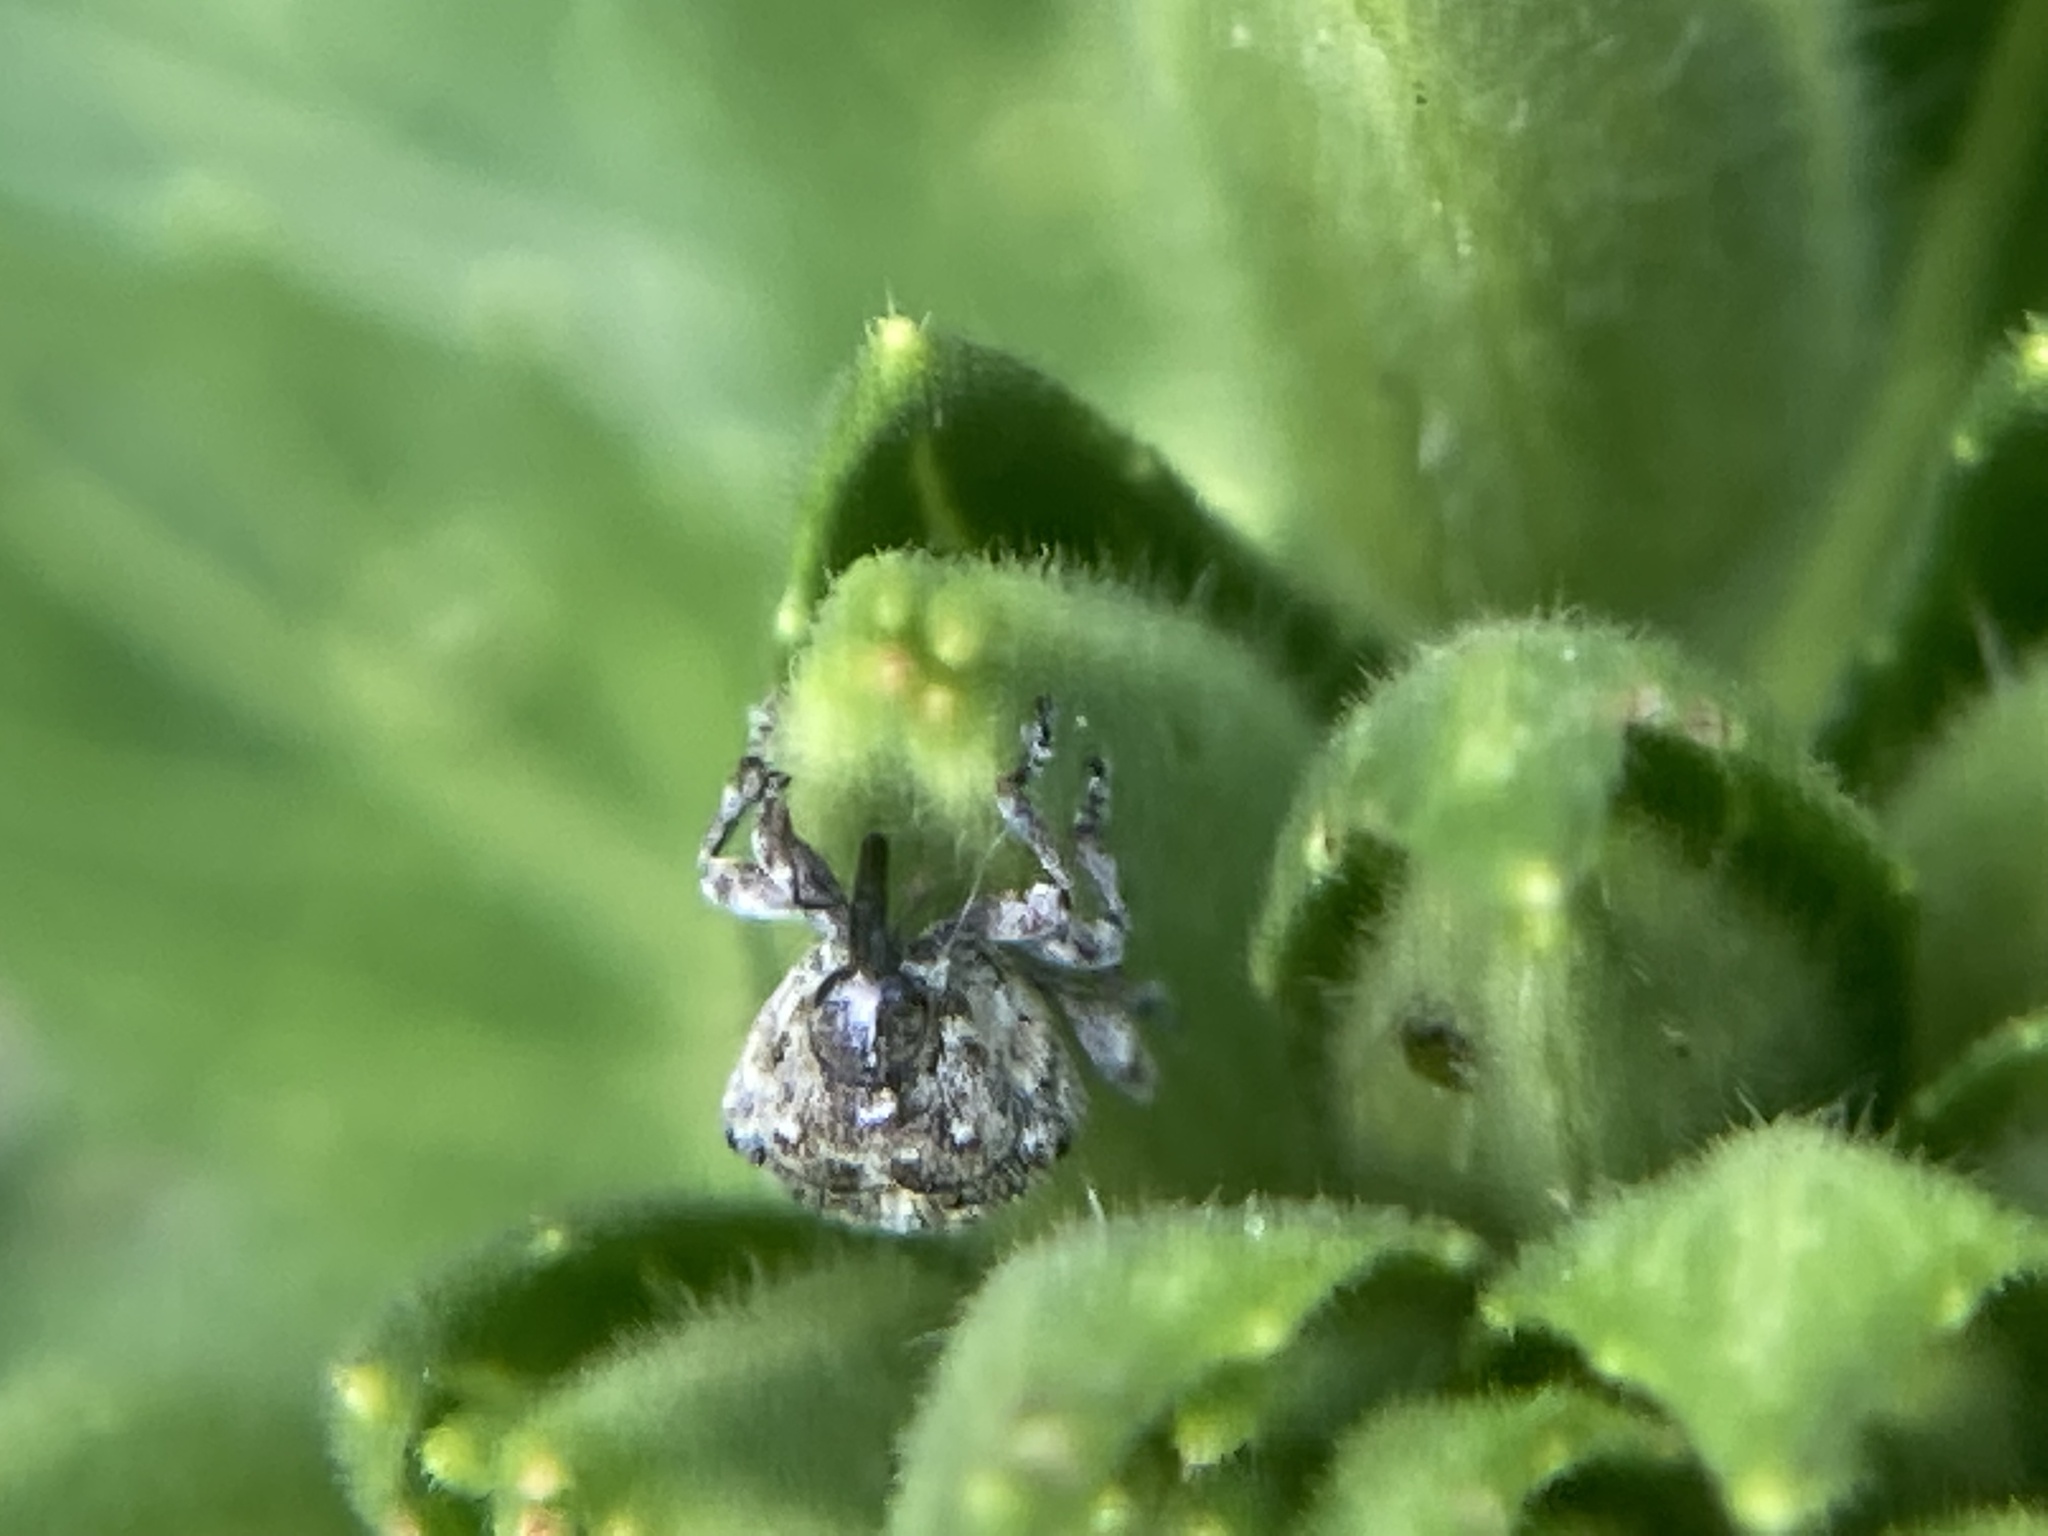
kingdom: Animalia
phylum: Arthropoda
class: Insecta
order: Coleoptera
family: Curculionidae
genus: Acanthoscelidius
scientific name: Acanthoscelidius acephalus
